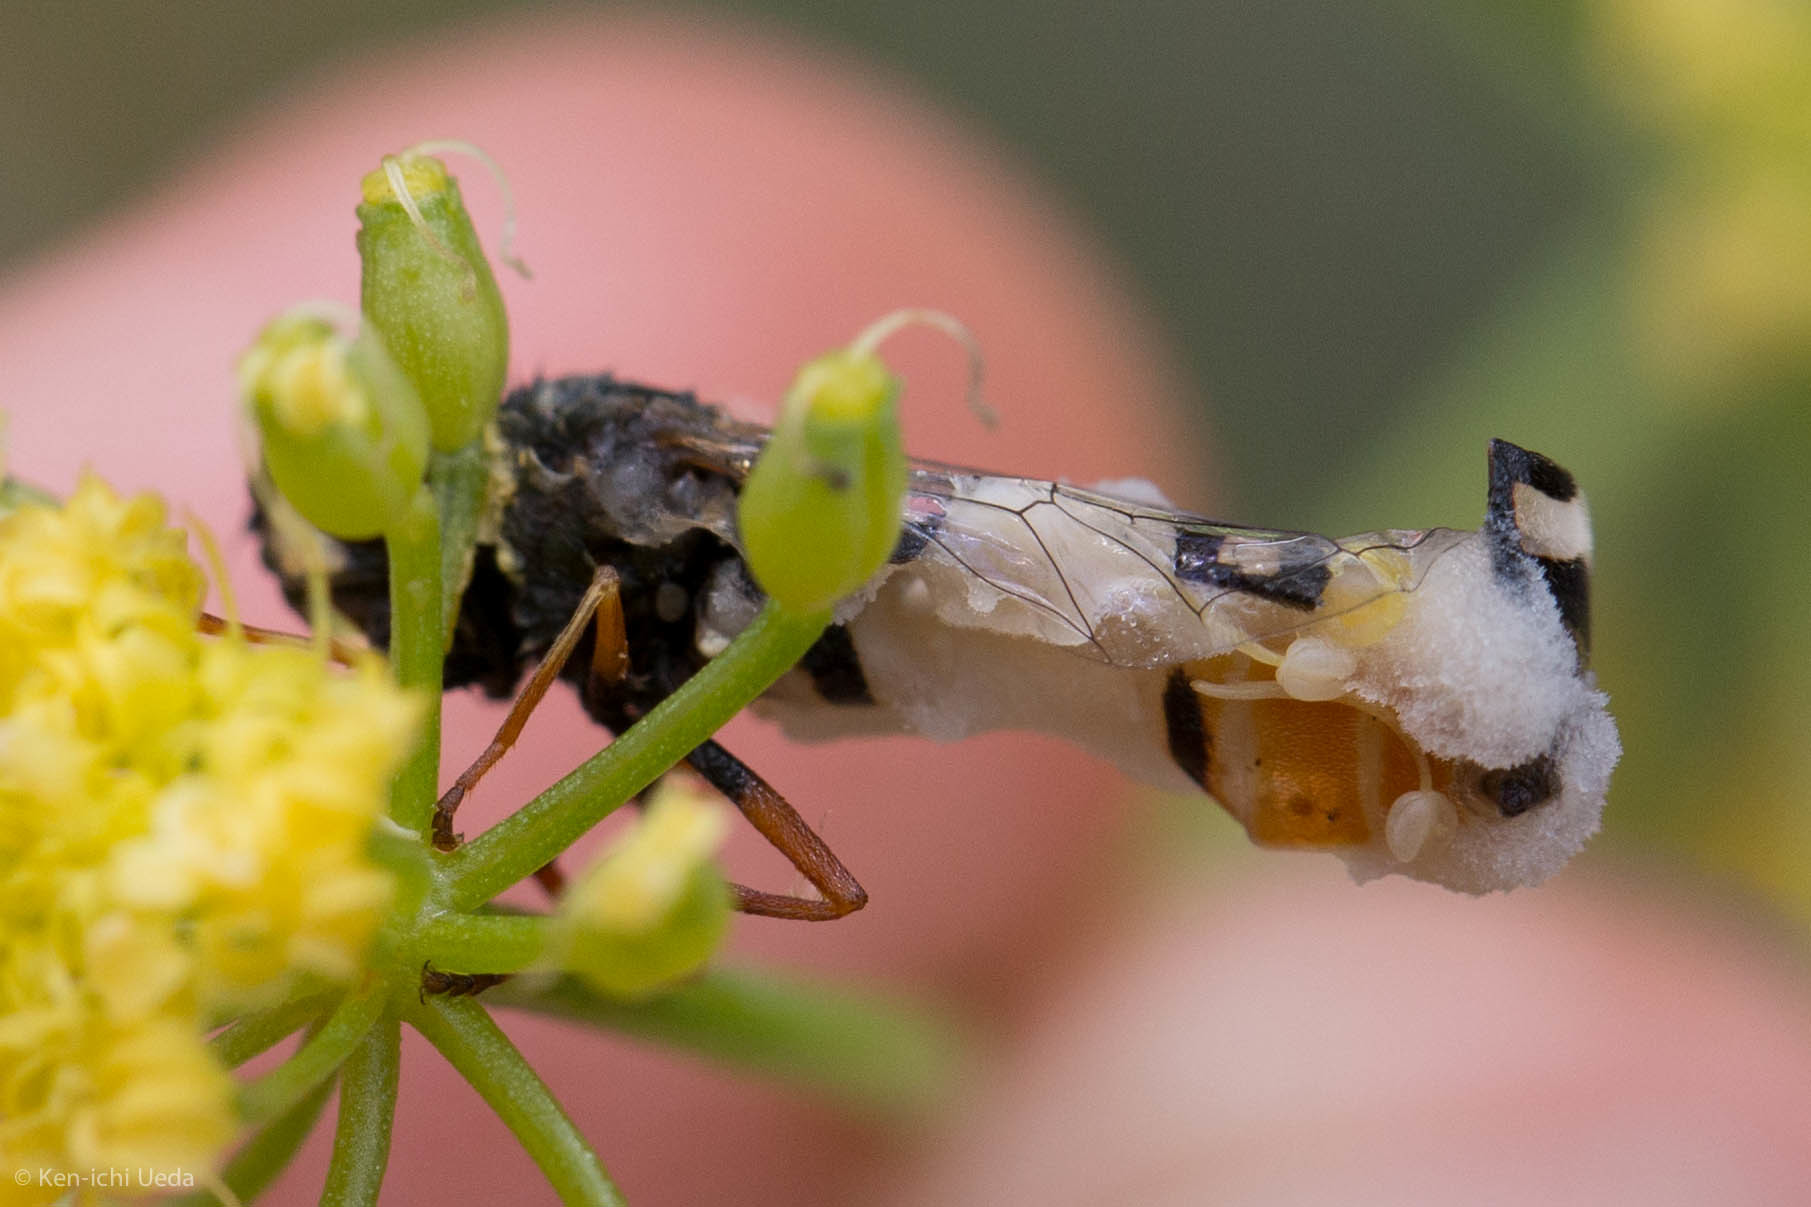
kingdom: Fungi
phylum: Entomophthoromycota
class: Entomophthoromycetes
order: Entomophthorales
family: Entomophthoraceae
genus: Entomophthora
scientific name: Entomophthora
